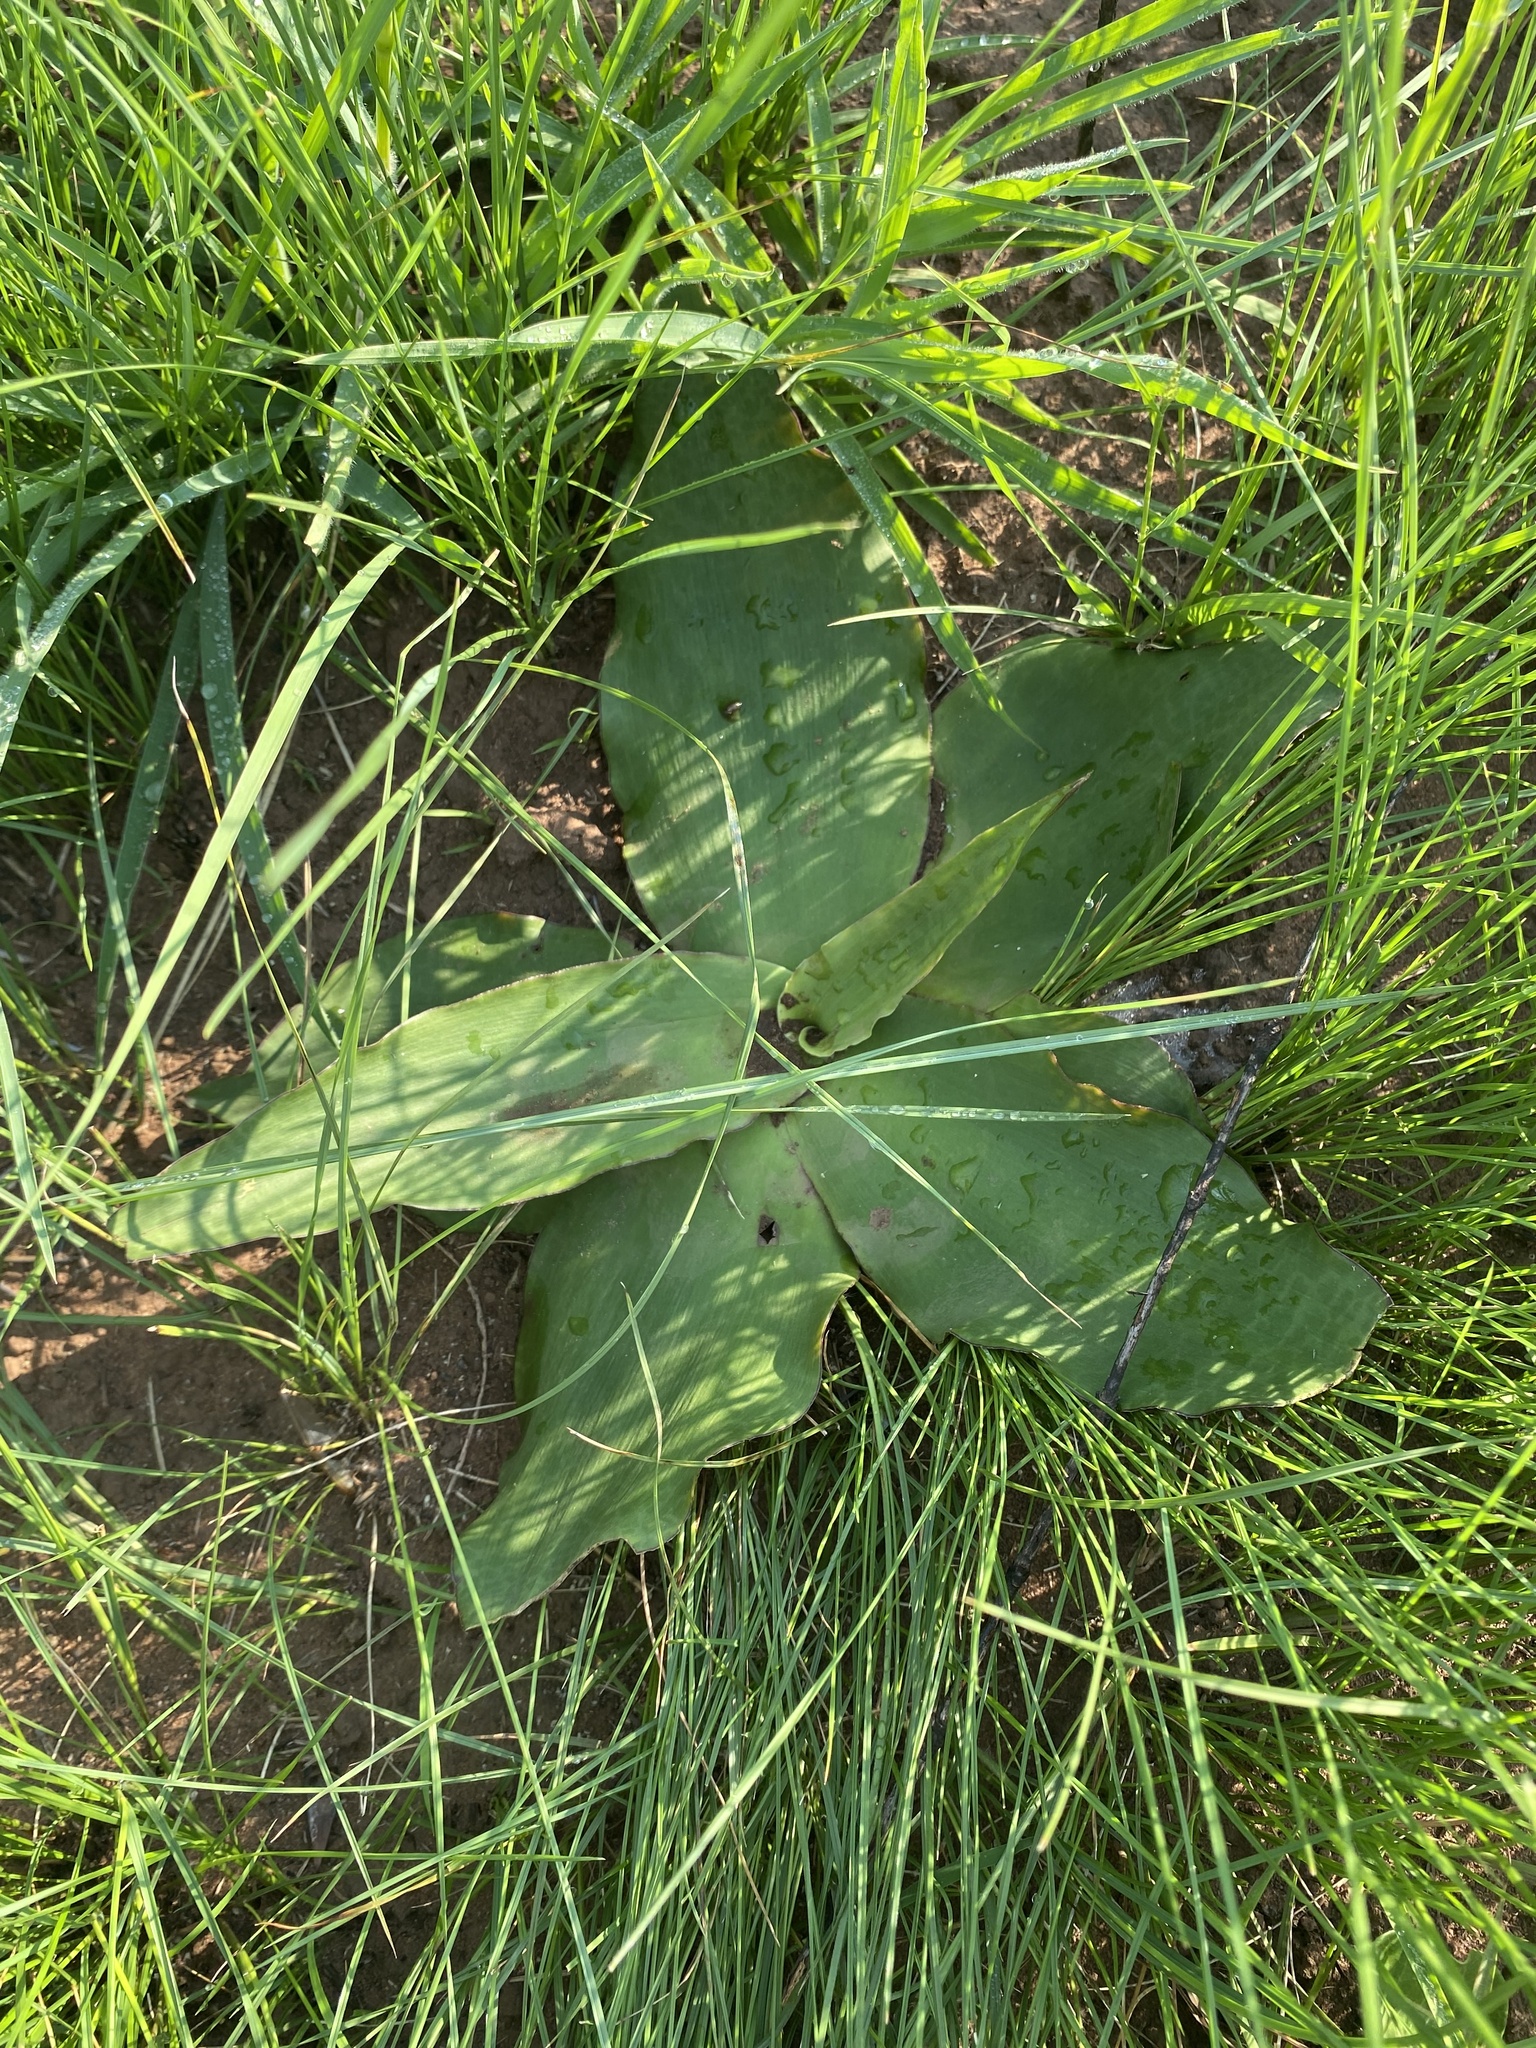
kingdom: Plantae
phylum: Tracheophyta
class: Liliopsida
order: Asparagales
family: Asparagaceae
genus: Ledebouria
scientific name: Ledebouria ovatifolia
